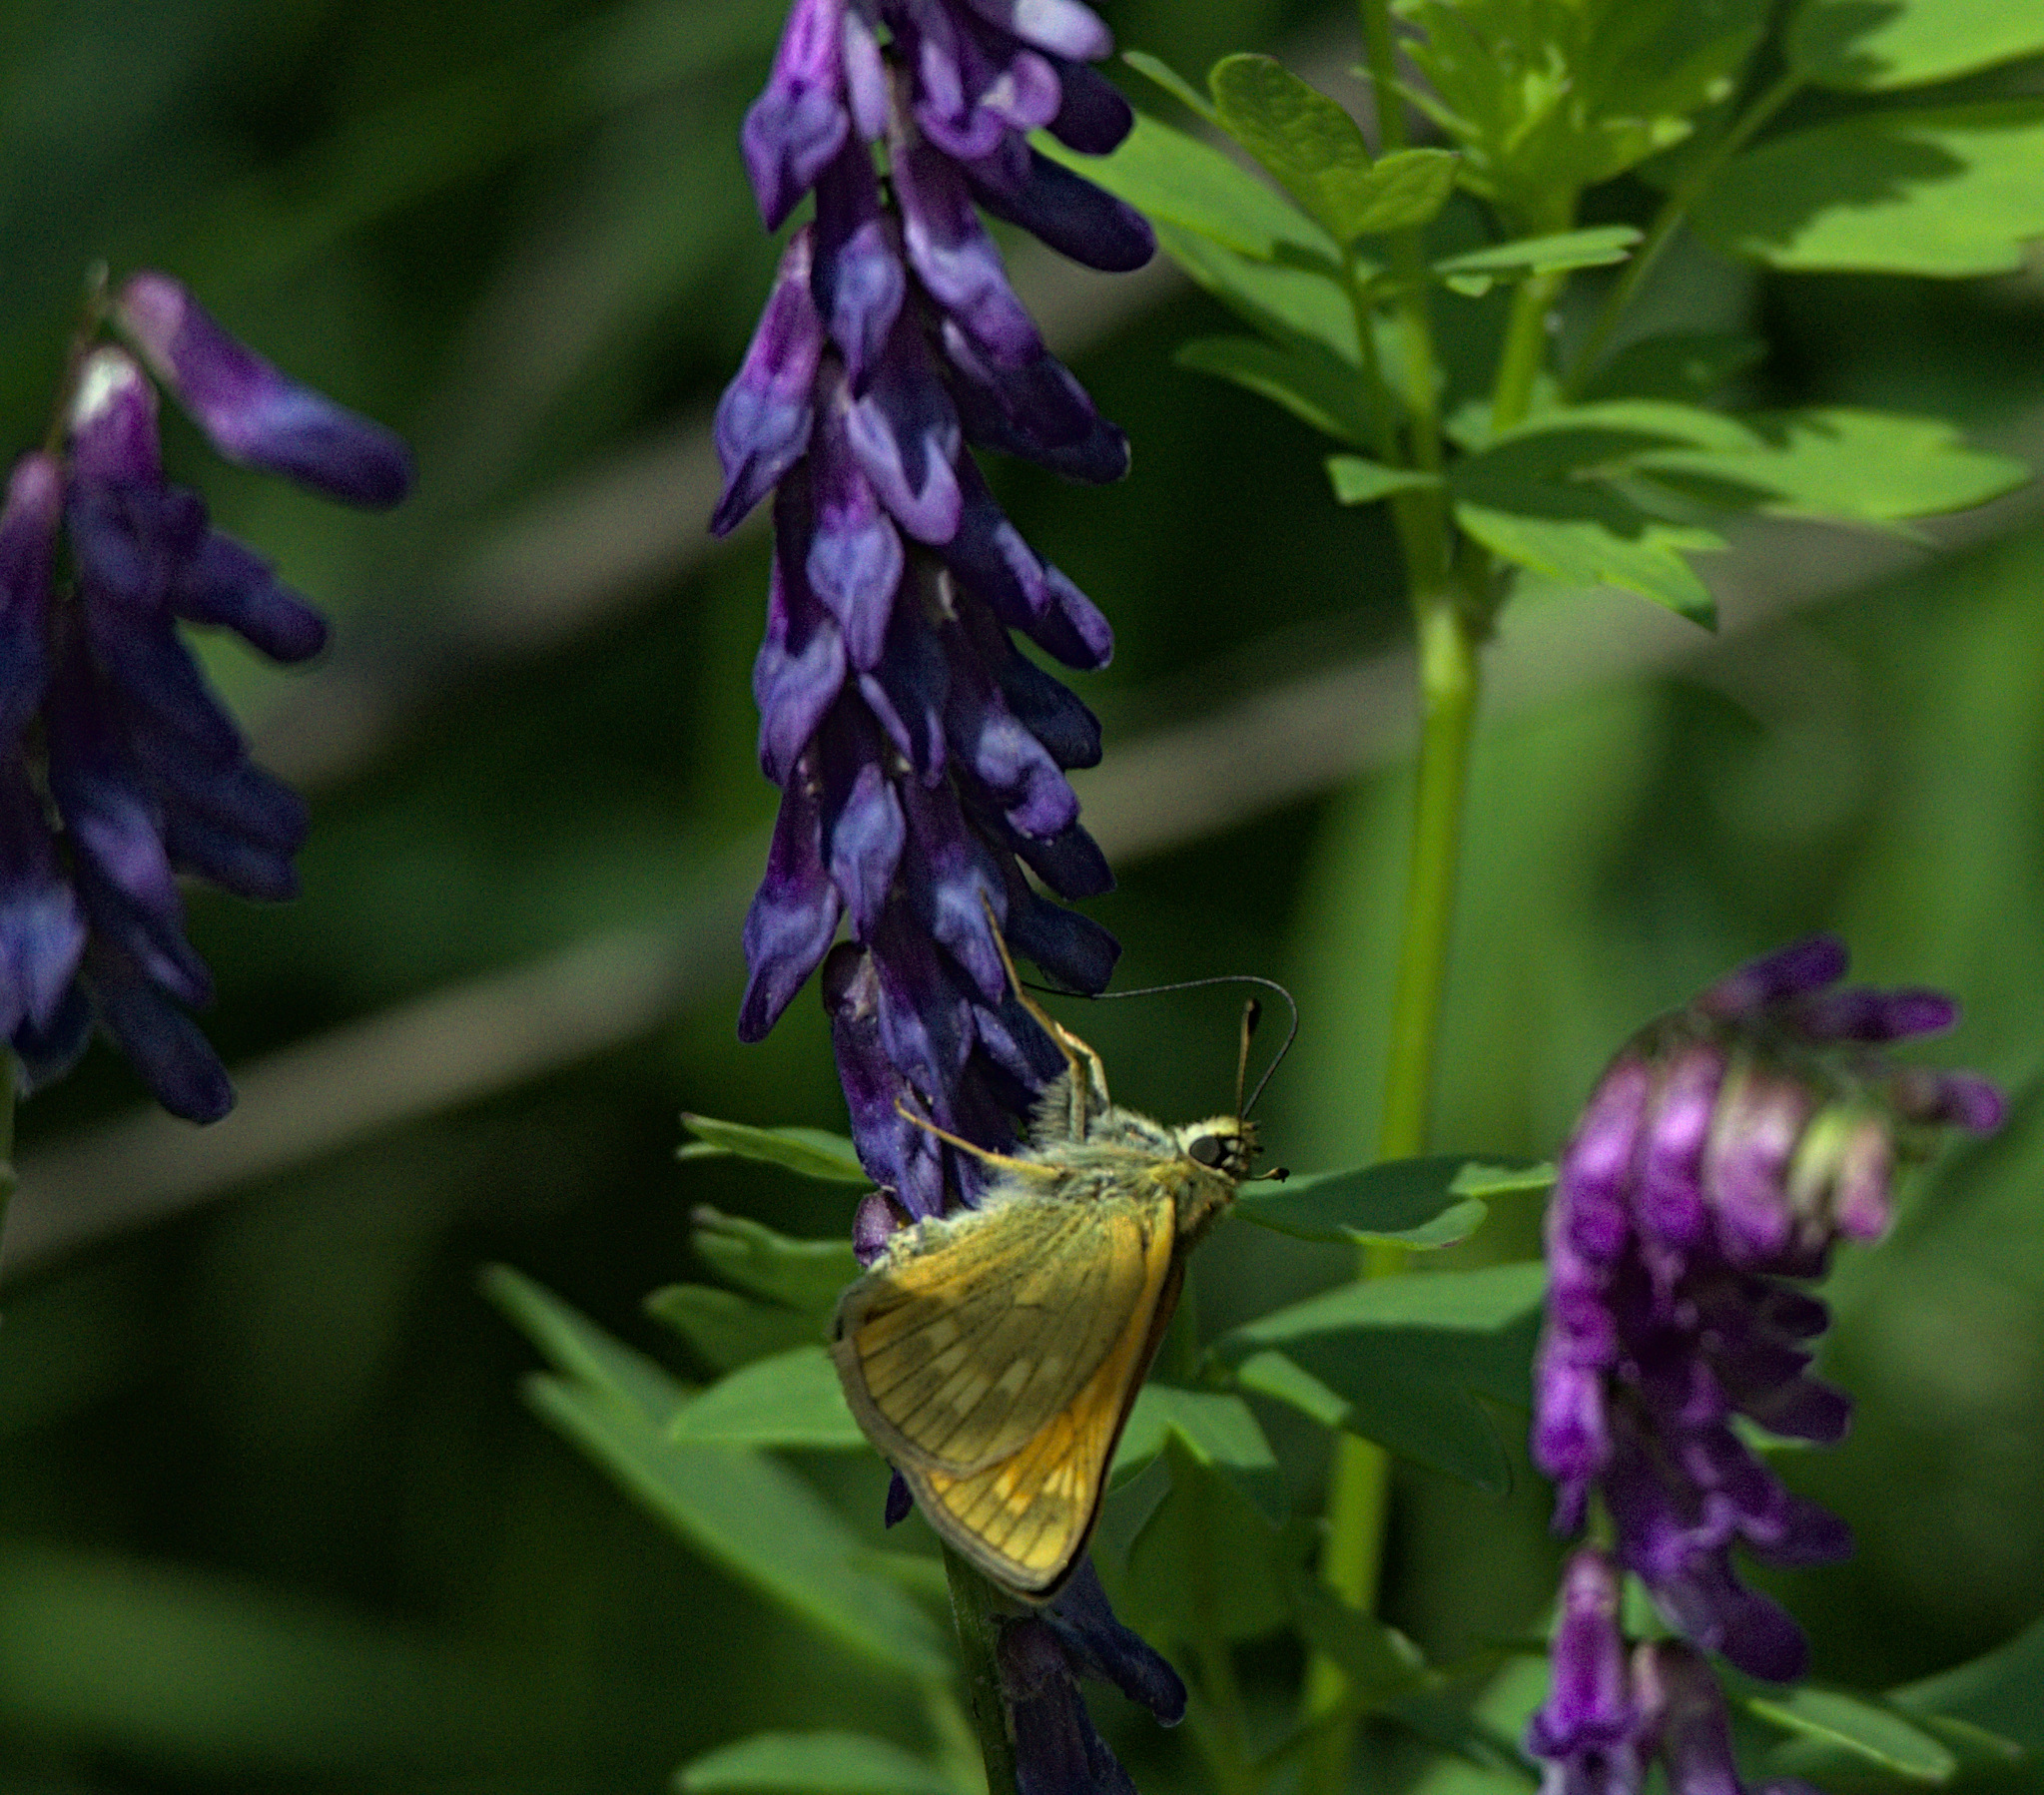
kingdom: Animalia
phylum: Arthropoda
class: Insecta
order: Lepidoptera
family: Hesperiidae
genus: Ochlodes
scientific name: Ochlodes venata
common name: Large skipper
